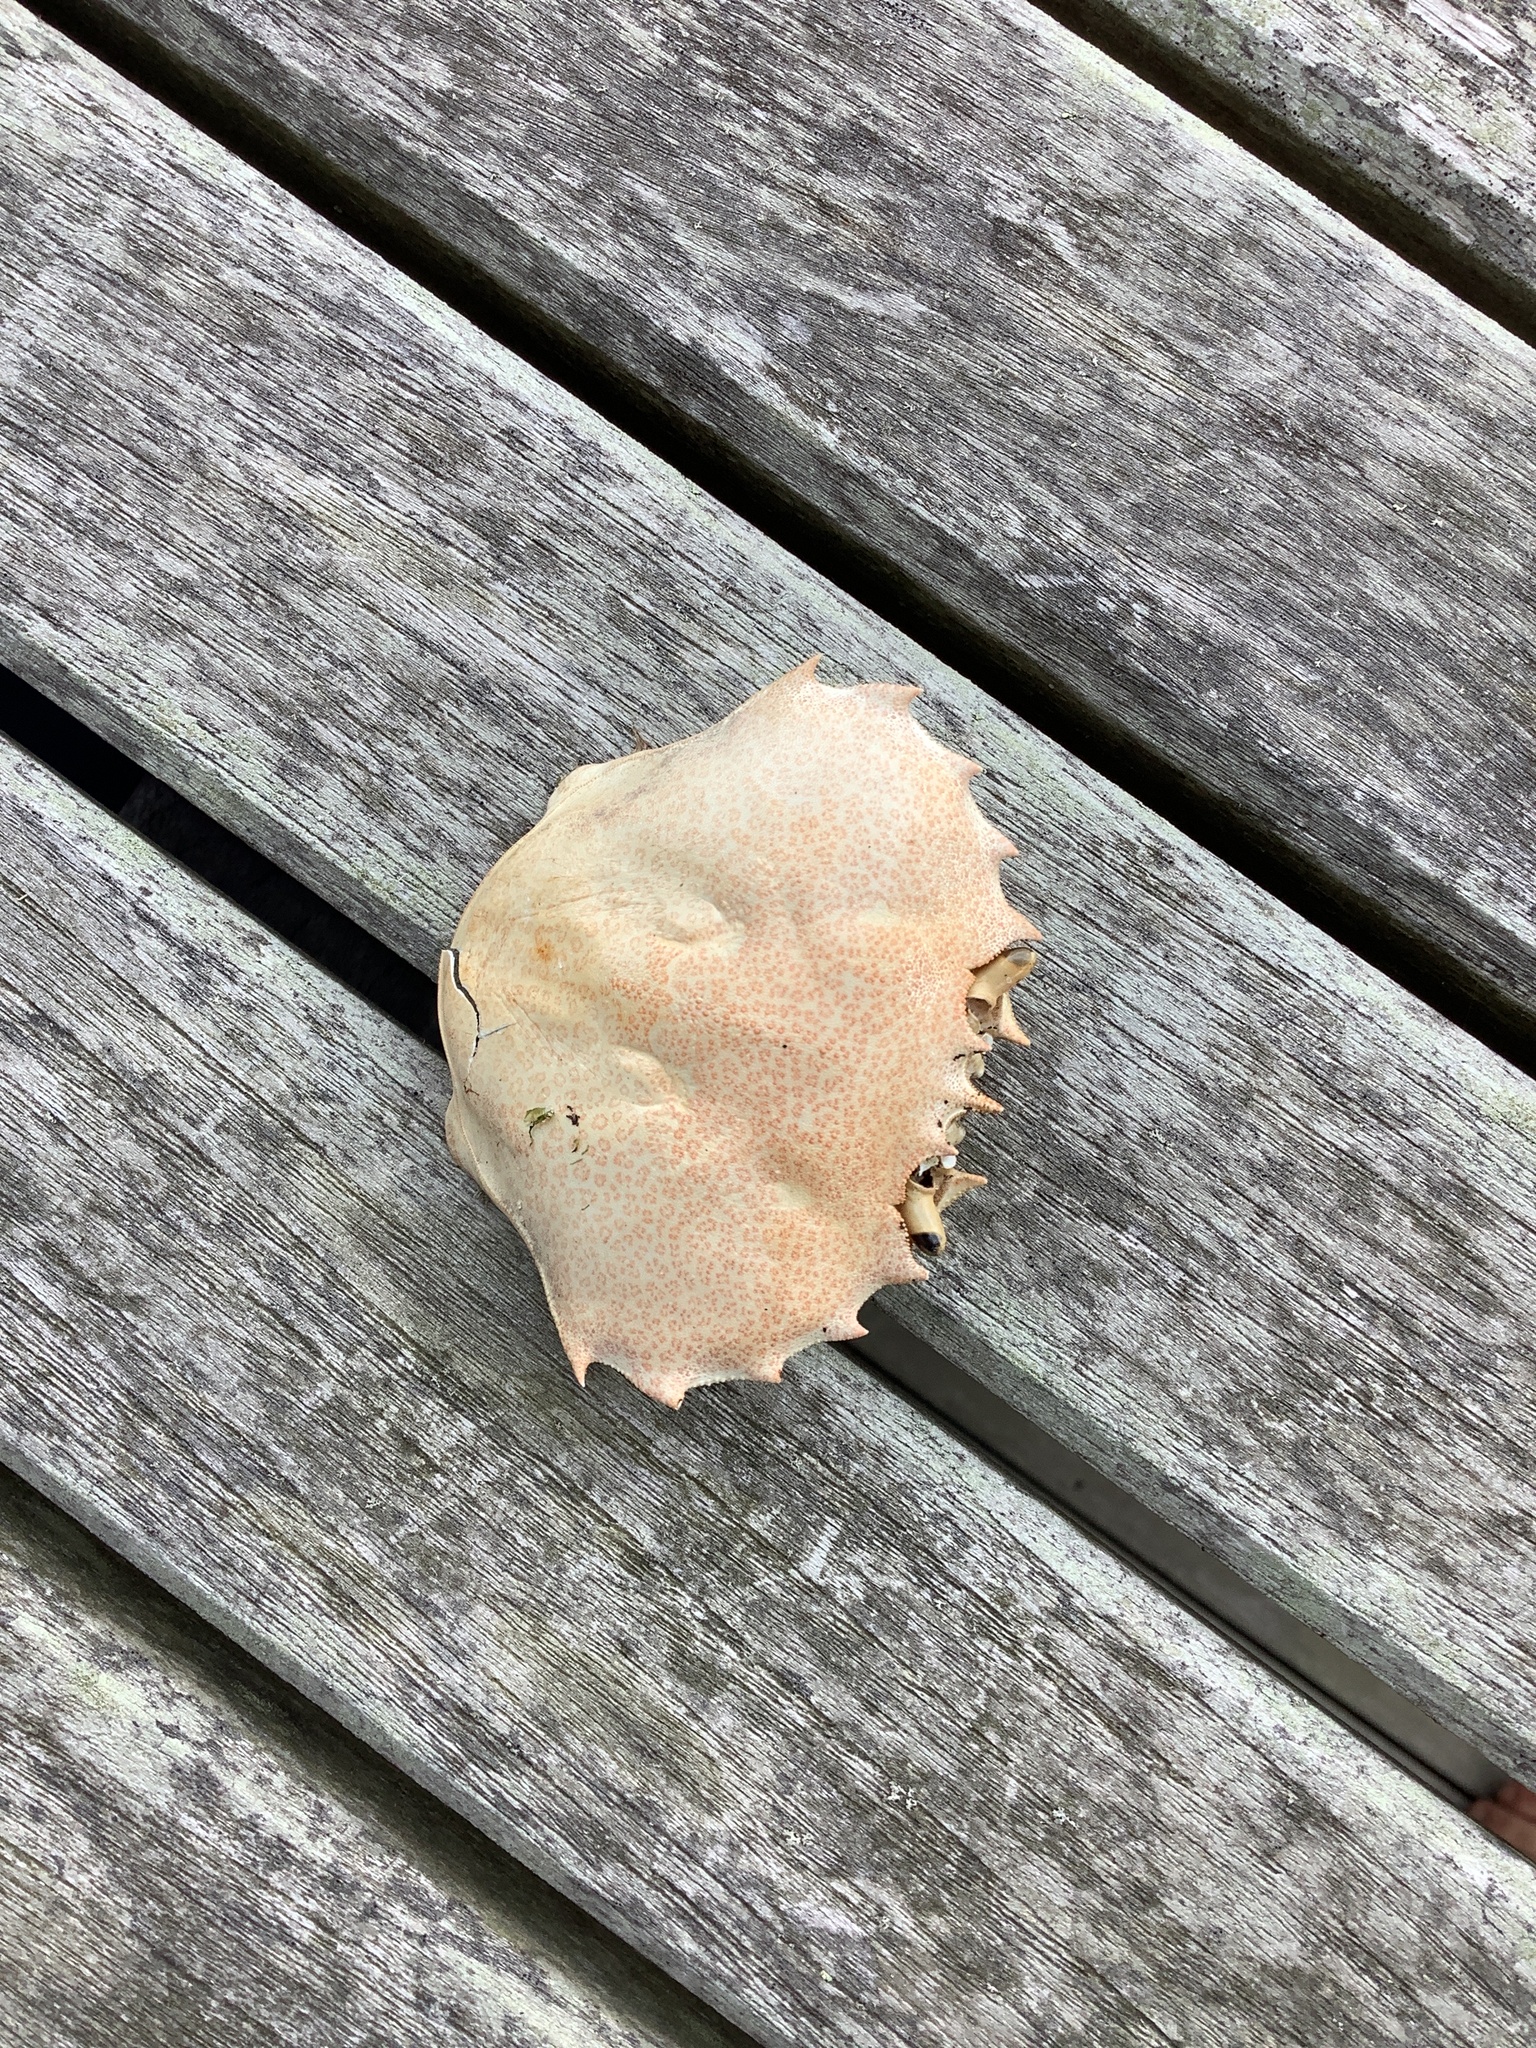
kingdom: Animalia
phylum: Arthropoda
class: Malacostraca
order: Decapoda
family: Ovalipidae
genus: Ovalipes
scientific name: Ovalipes ocellatus
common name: Lady crab
